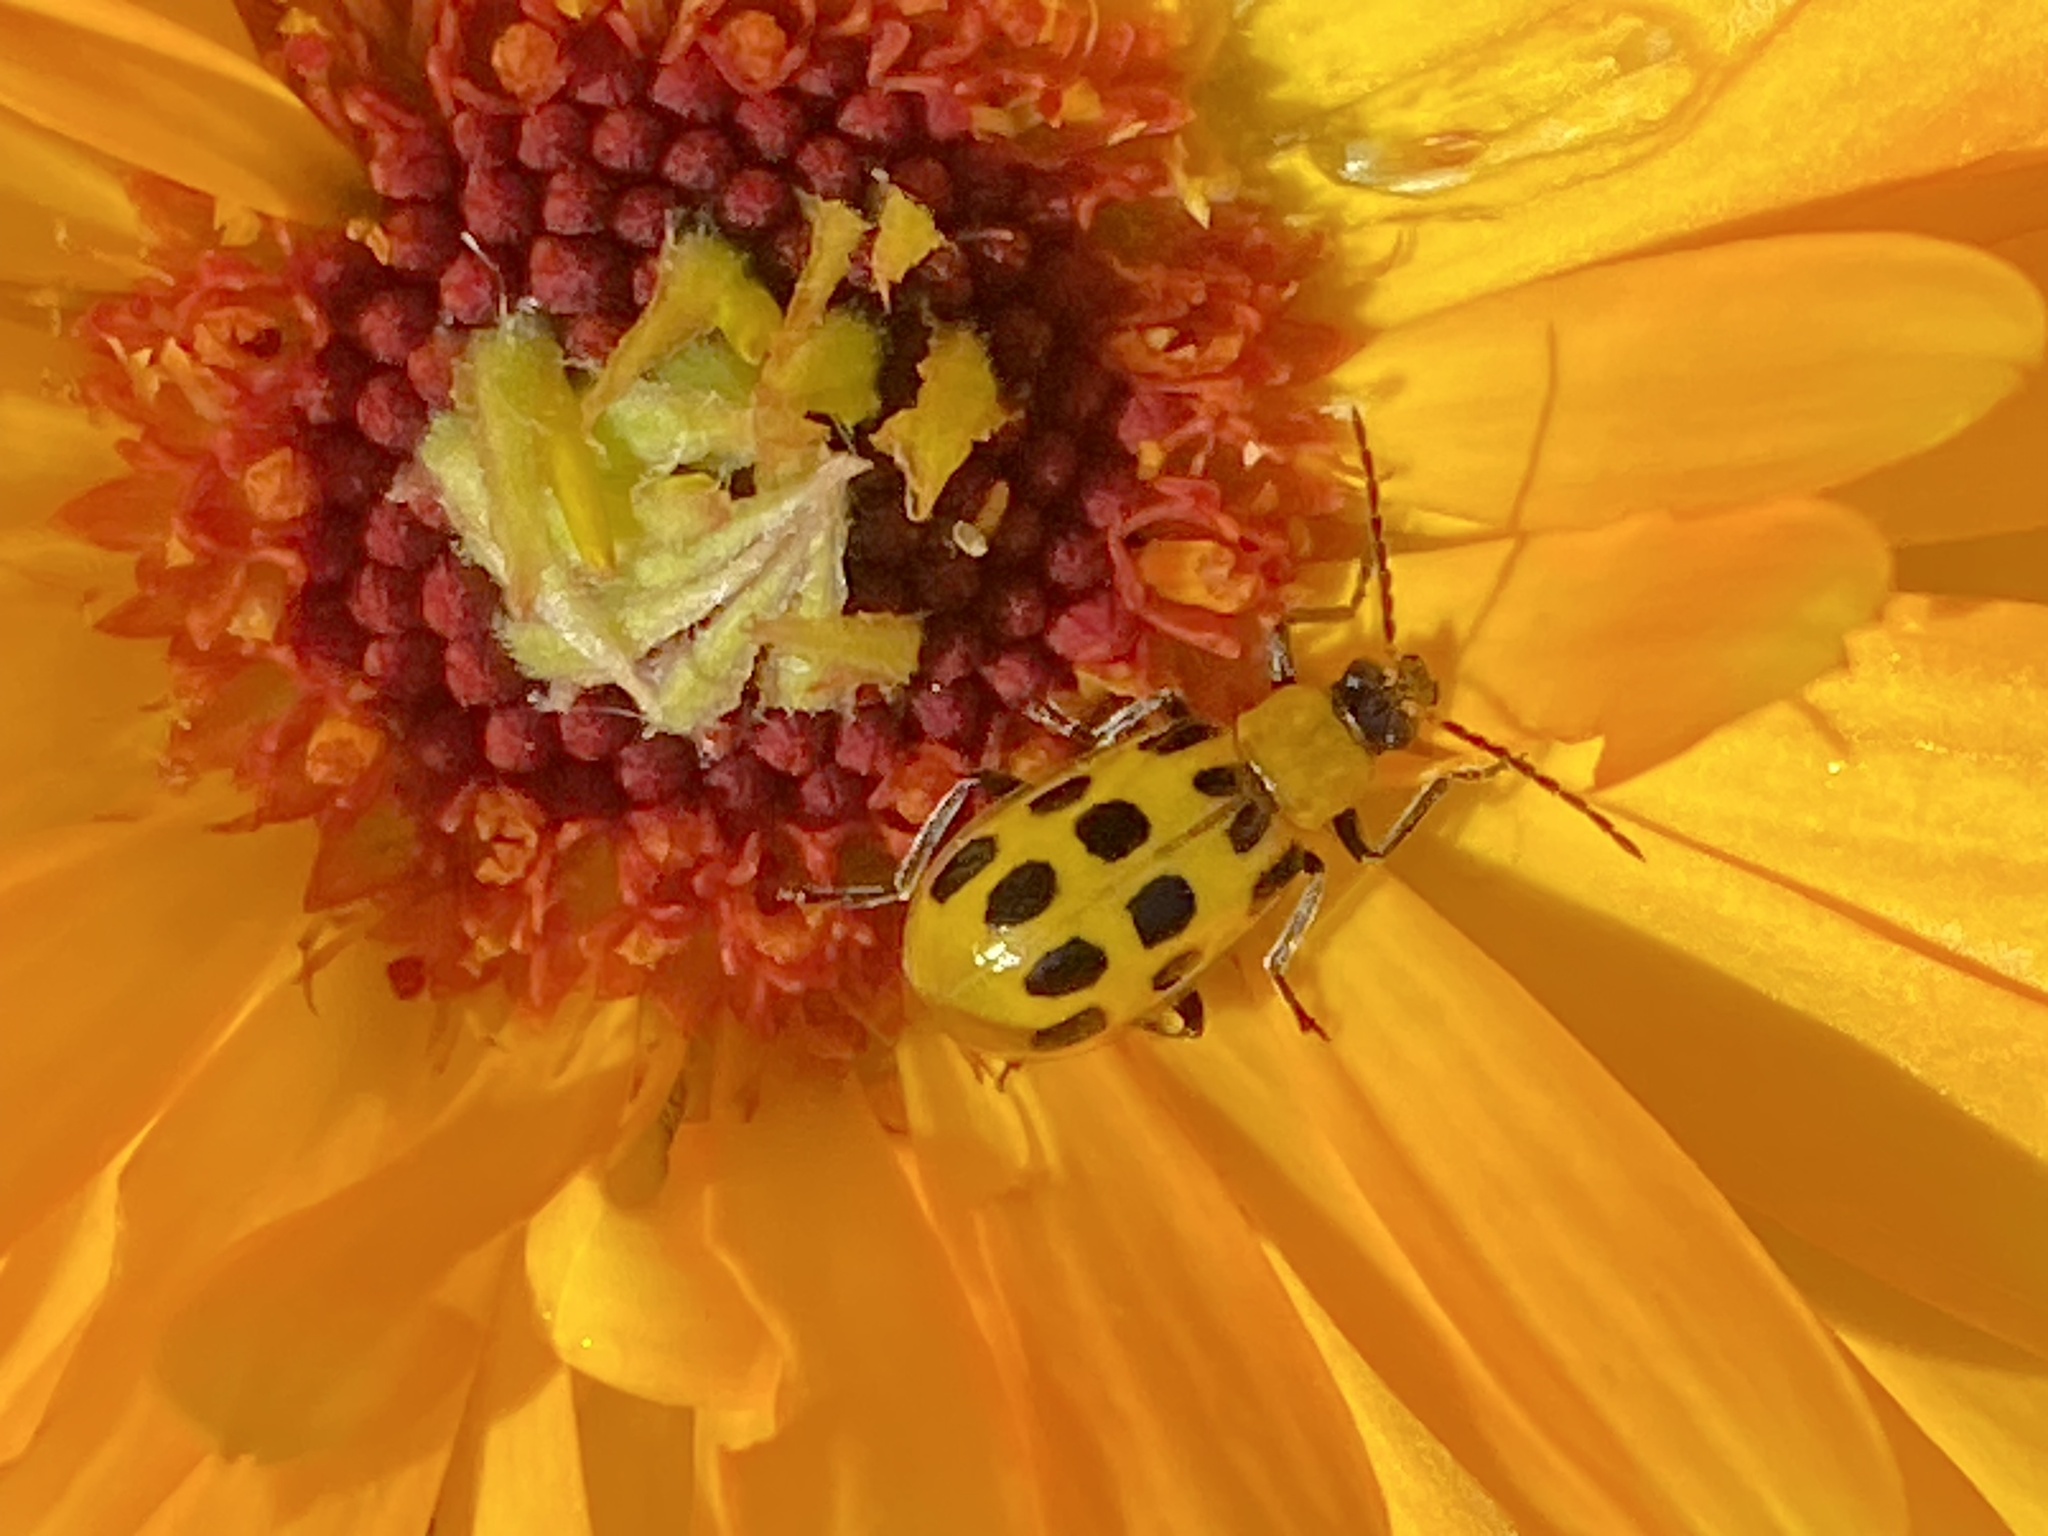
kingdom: Animalia
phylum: Arthropoda
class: Insecta
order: Coleoptera
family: Chrysomelidae
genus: Diabrotica
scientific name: Diabrotica undecimpunctata
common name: Spotted cucumber beetle
